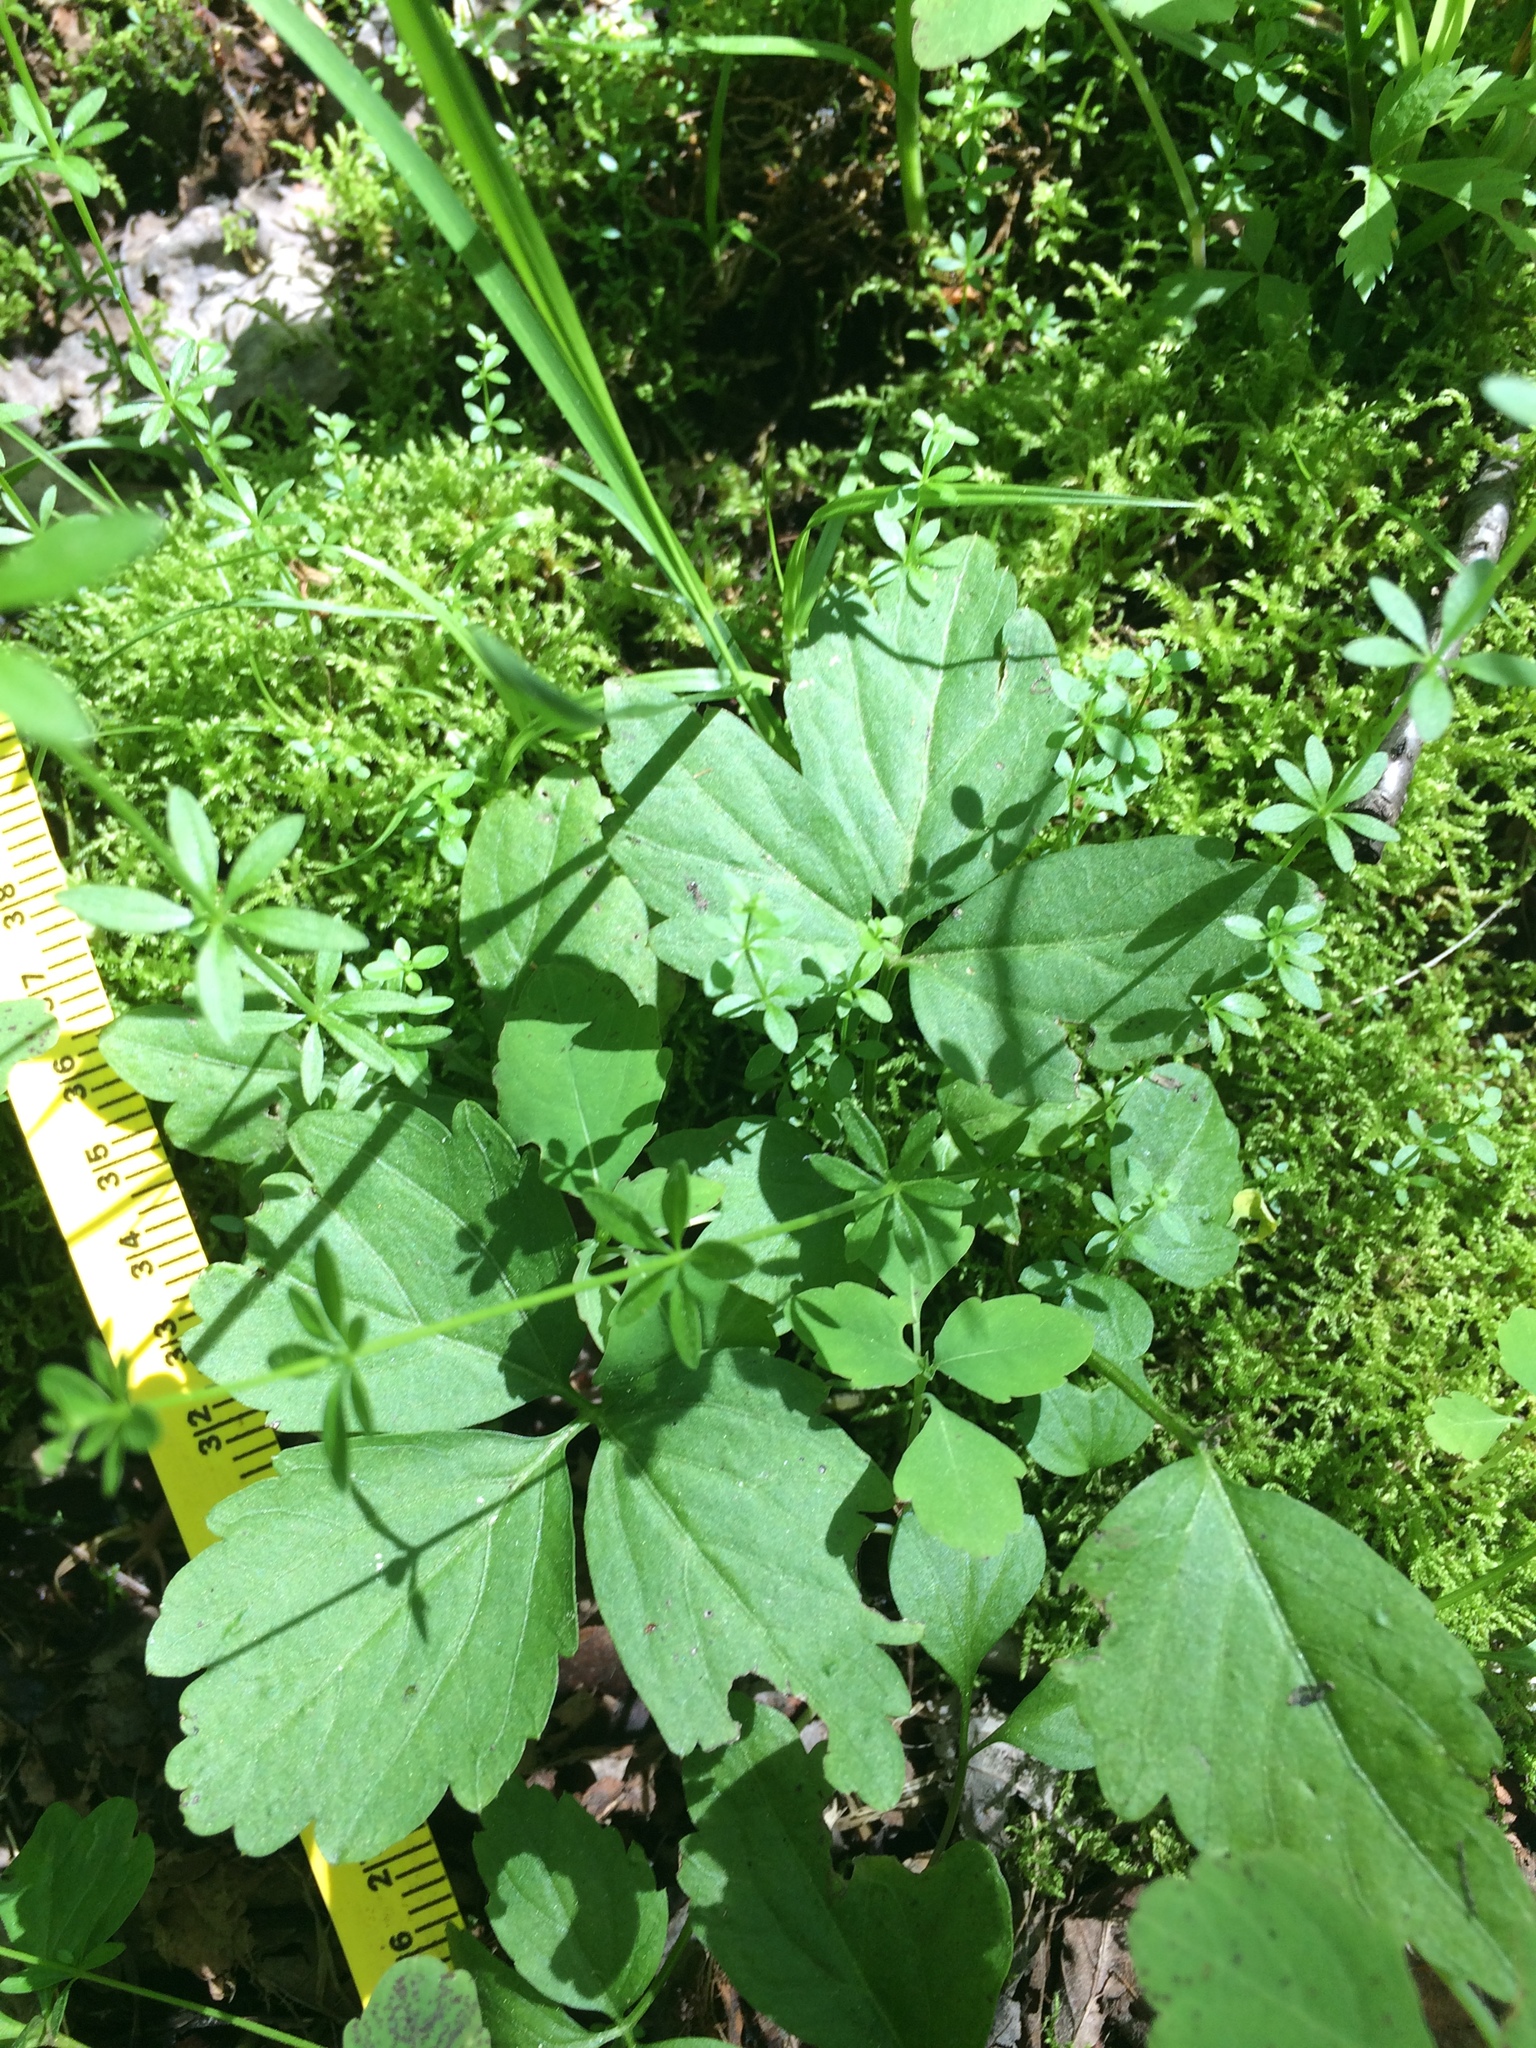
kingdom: Plantae
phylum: Tracheophyta
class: Magnoliopsida
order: Brassicales
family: Brassicaceae
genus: Cardamine
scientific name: Cardamine diphylla
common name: Broad-leaved toothwort
